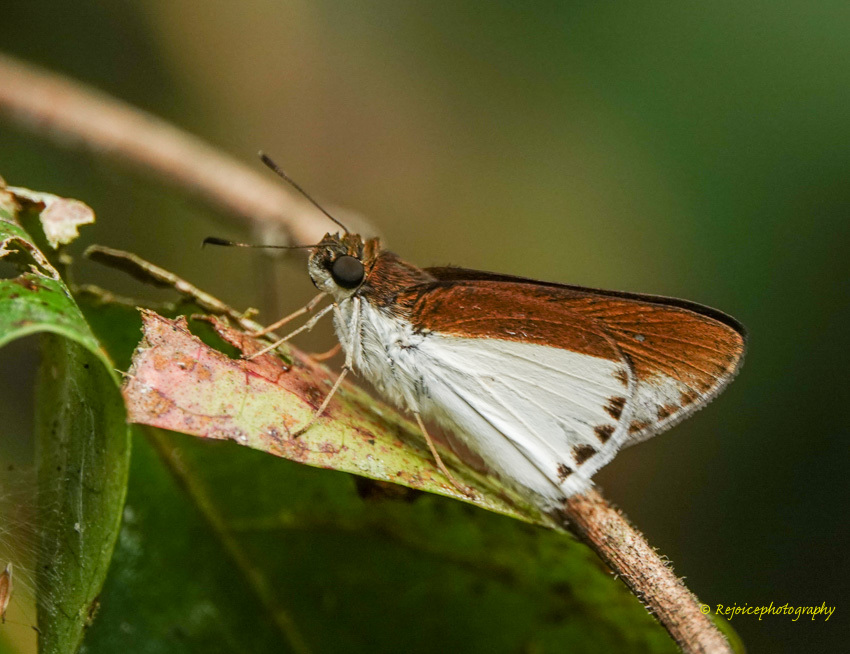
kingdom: Animalia
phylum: Arthropoda
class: Insecta
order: Lepidoptera
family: Hesperiidae
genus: Iton
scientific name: Iton semamora
